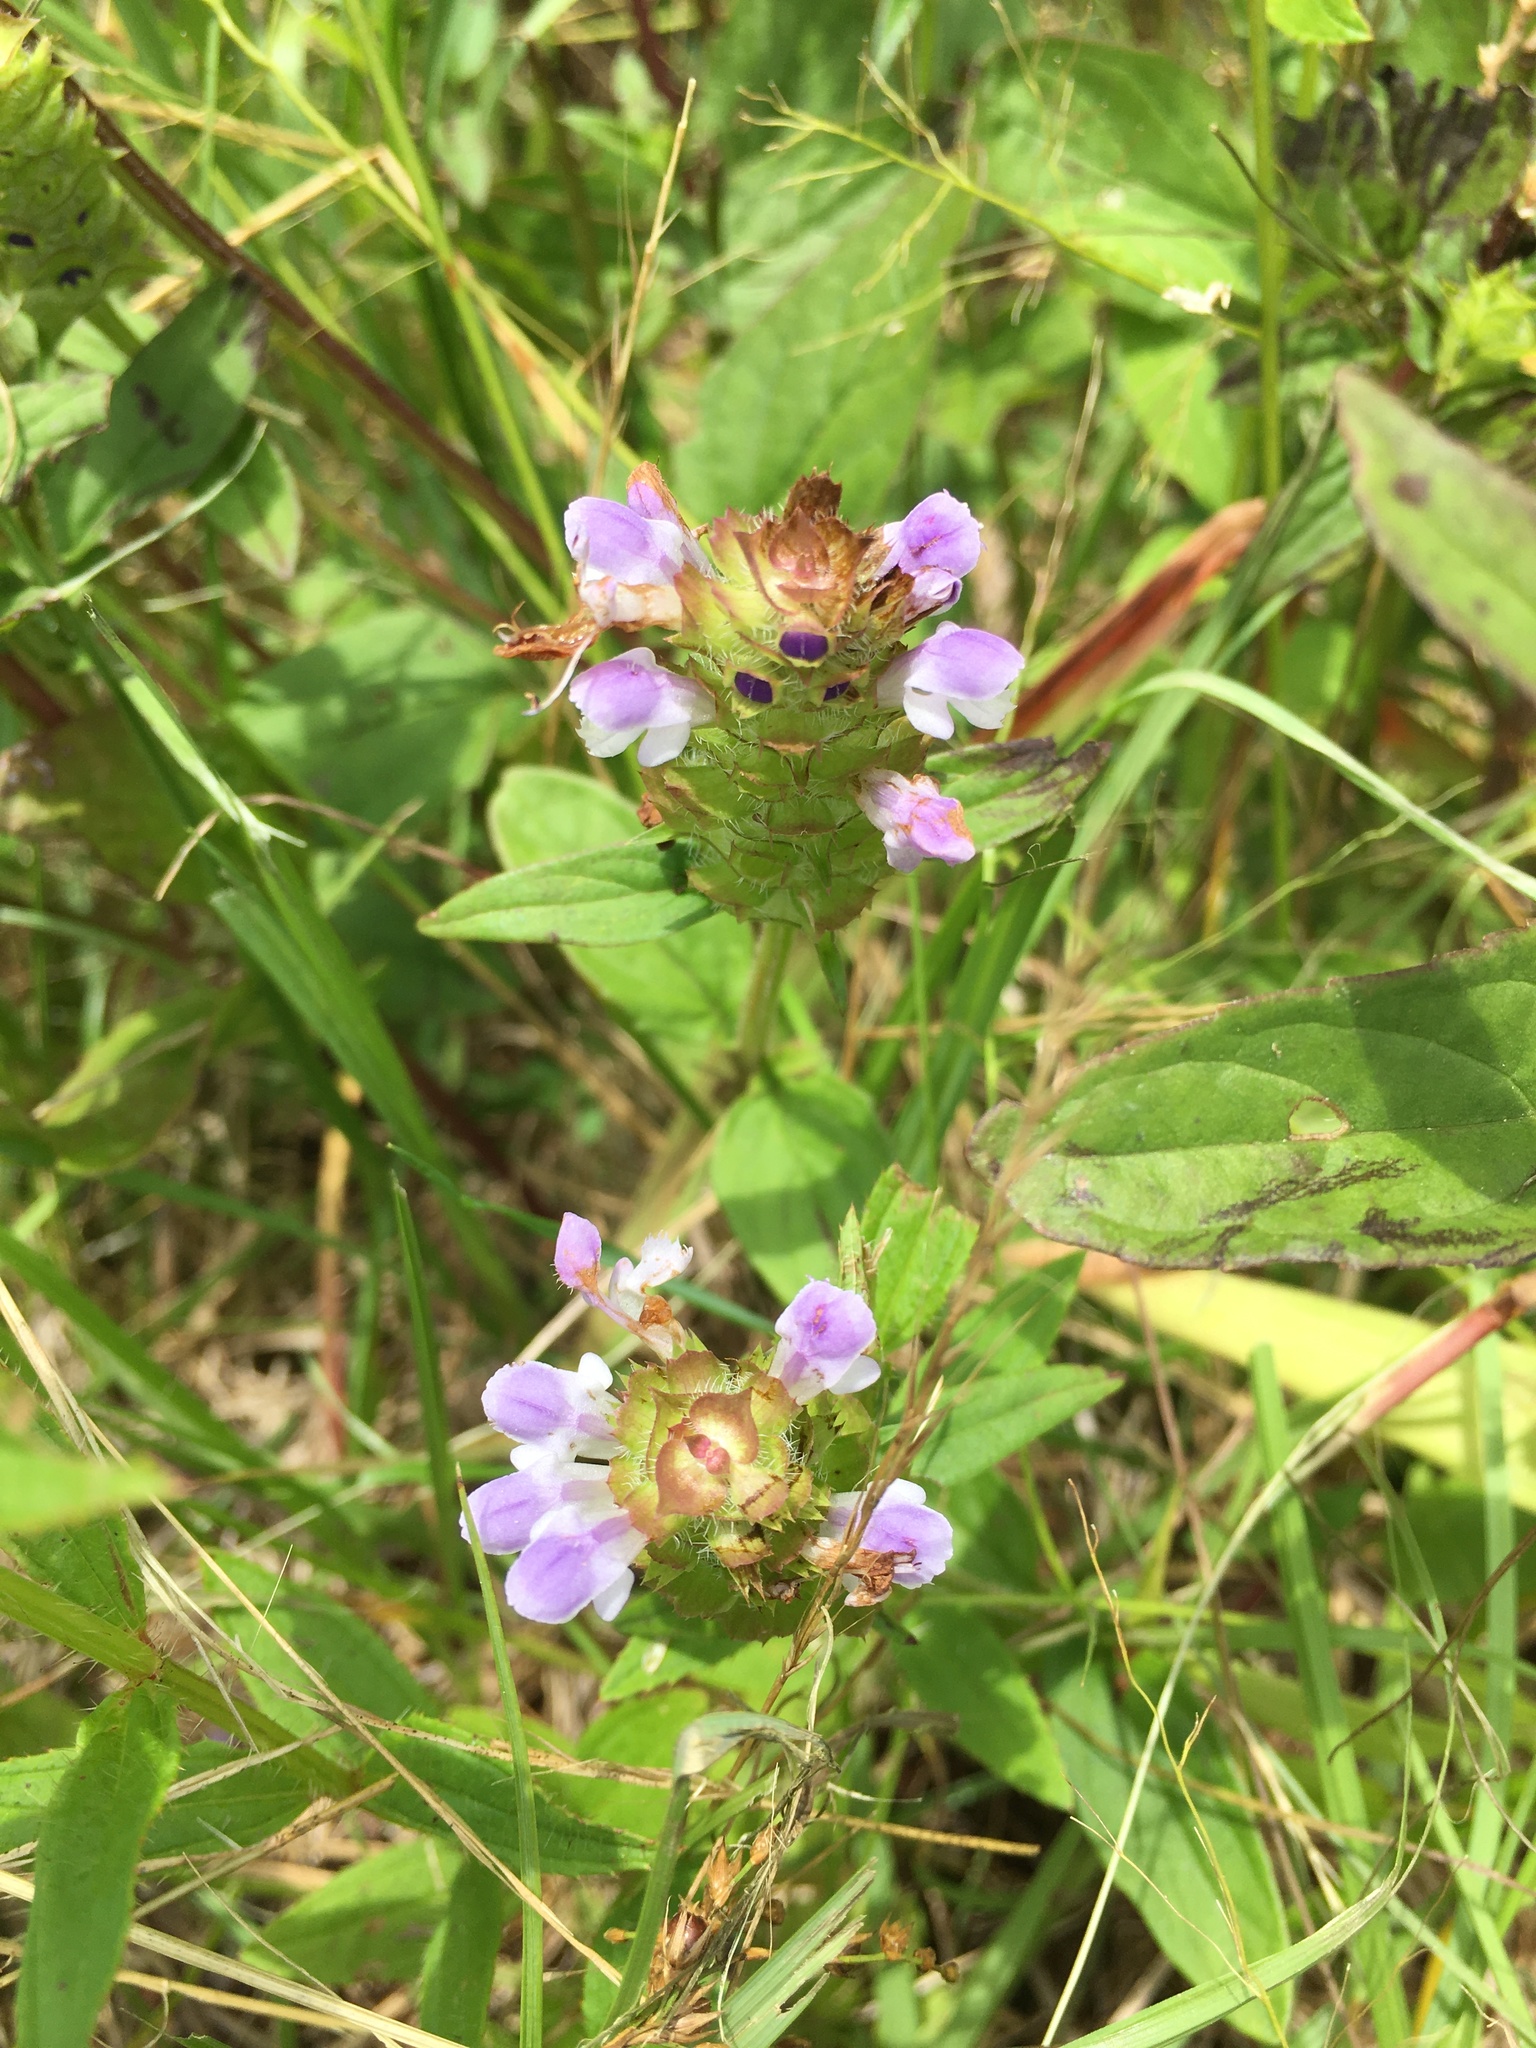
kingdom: Plantae
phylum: Tracheophyta
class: Magnoliopsida
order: Lamiales
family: Lamiaceae
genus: Prunella
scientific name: Prunella vulgaris
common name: Heal-all
